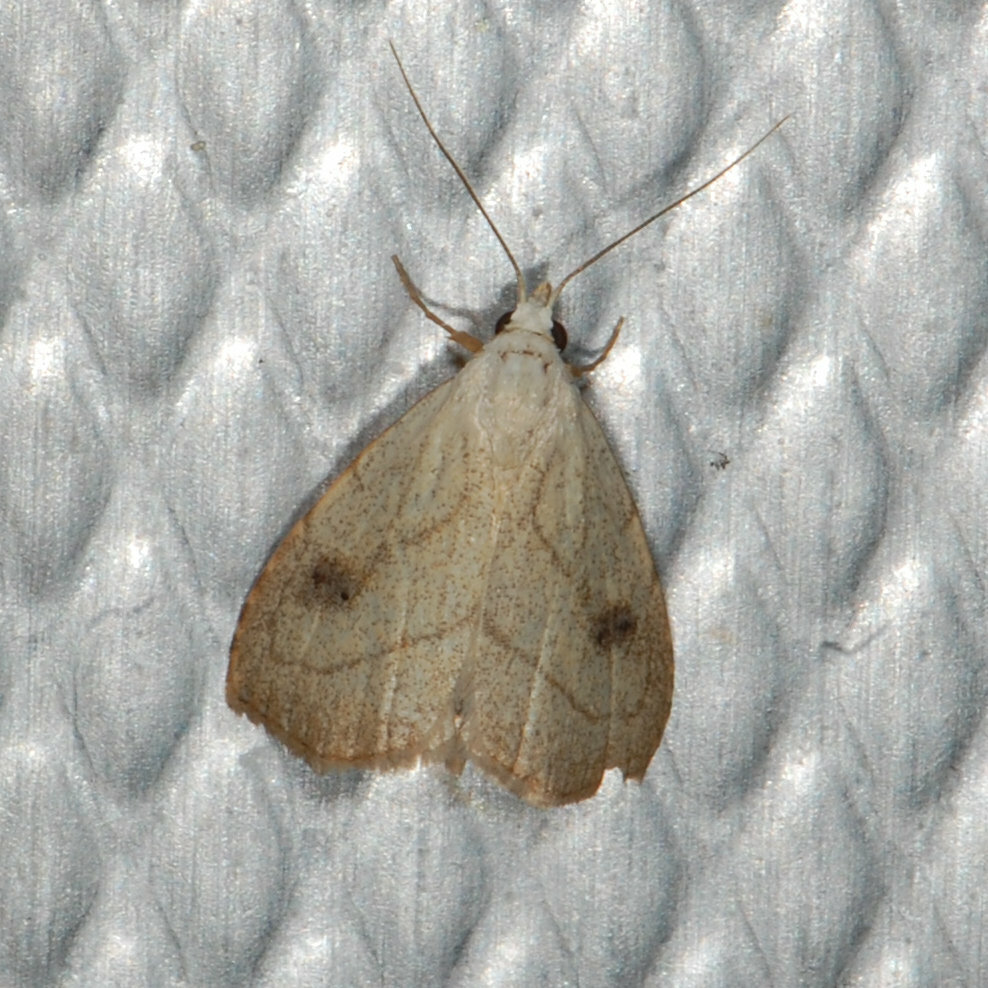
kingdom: Animalia
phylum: Arthropoda
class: Insecta
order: Lepidoptera
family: Erebidae
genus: Rivula
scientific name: Rivula propinqualis
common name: Spotted grass moth
